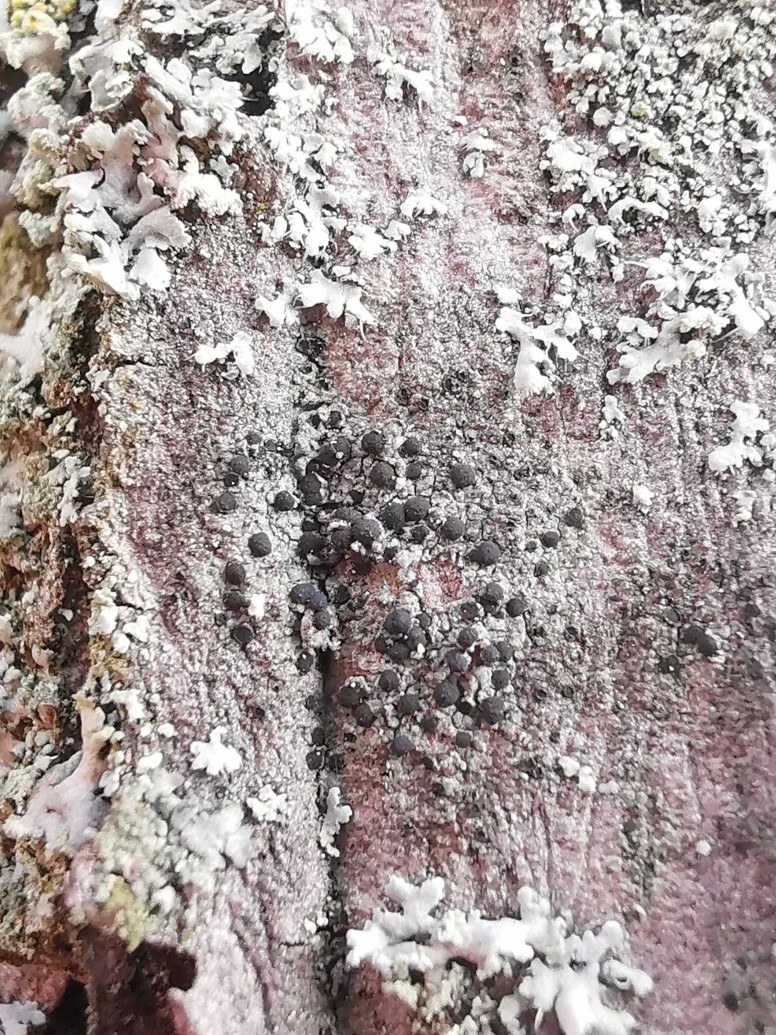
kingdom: Fungi
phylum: Ascomycota
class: Lecanoromycetes
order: Lecanorales
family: Lecanoraceae
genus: Lecidella
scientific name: Lecidella elaeochroma
